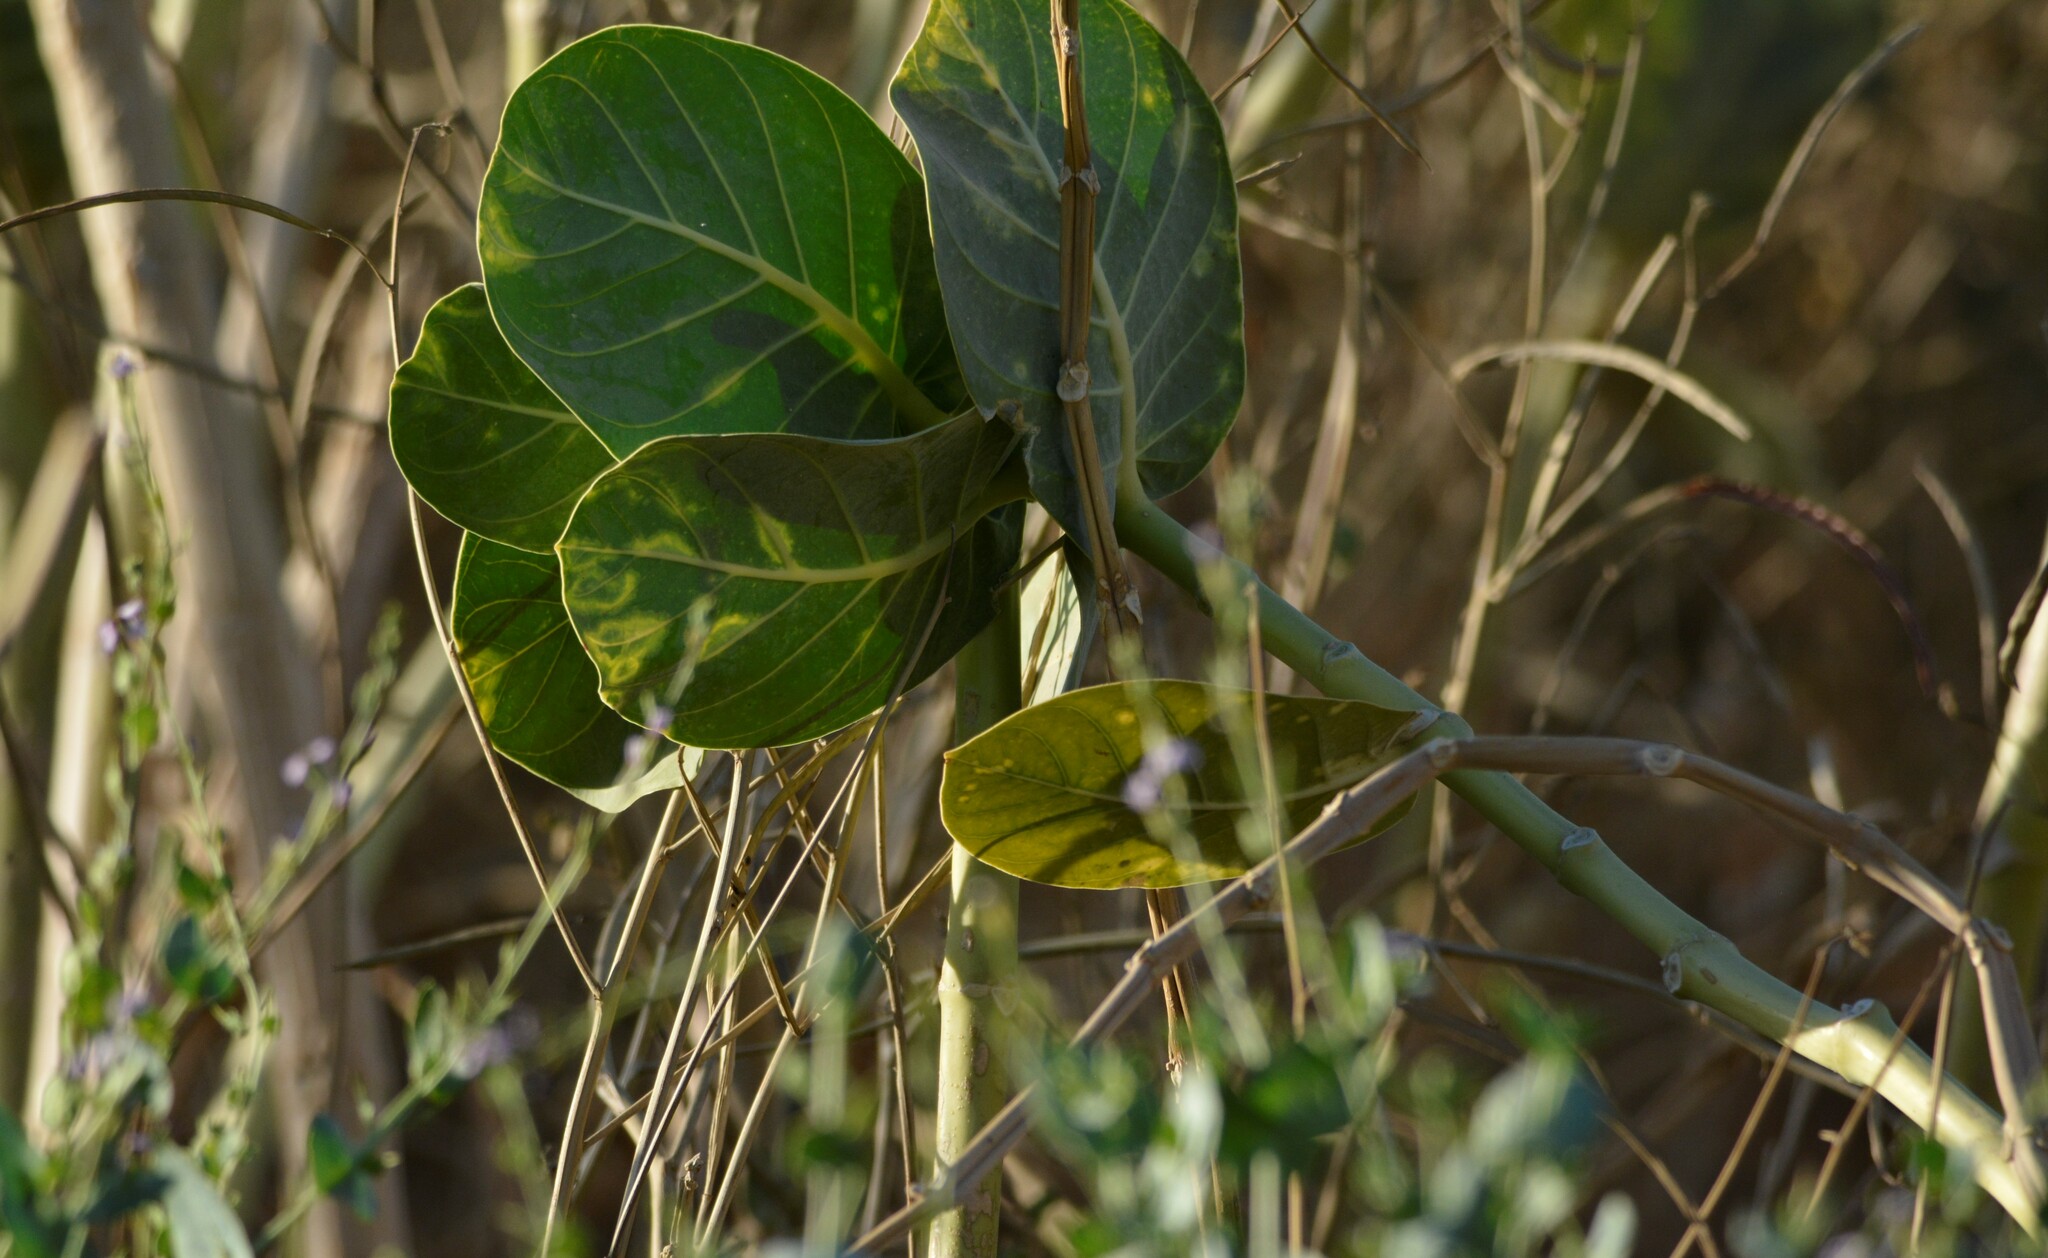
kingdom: Plantae
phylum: Tracheophyta
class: Magnoliopsida
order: Gentianales
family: Apocynaceae
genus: Calotropis
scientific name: Calotropis procera
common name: Roostertree
